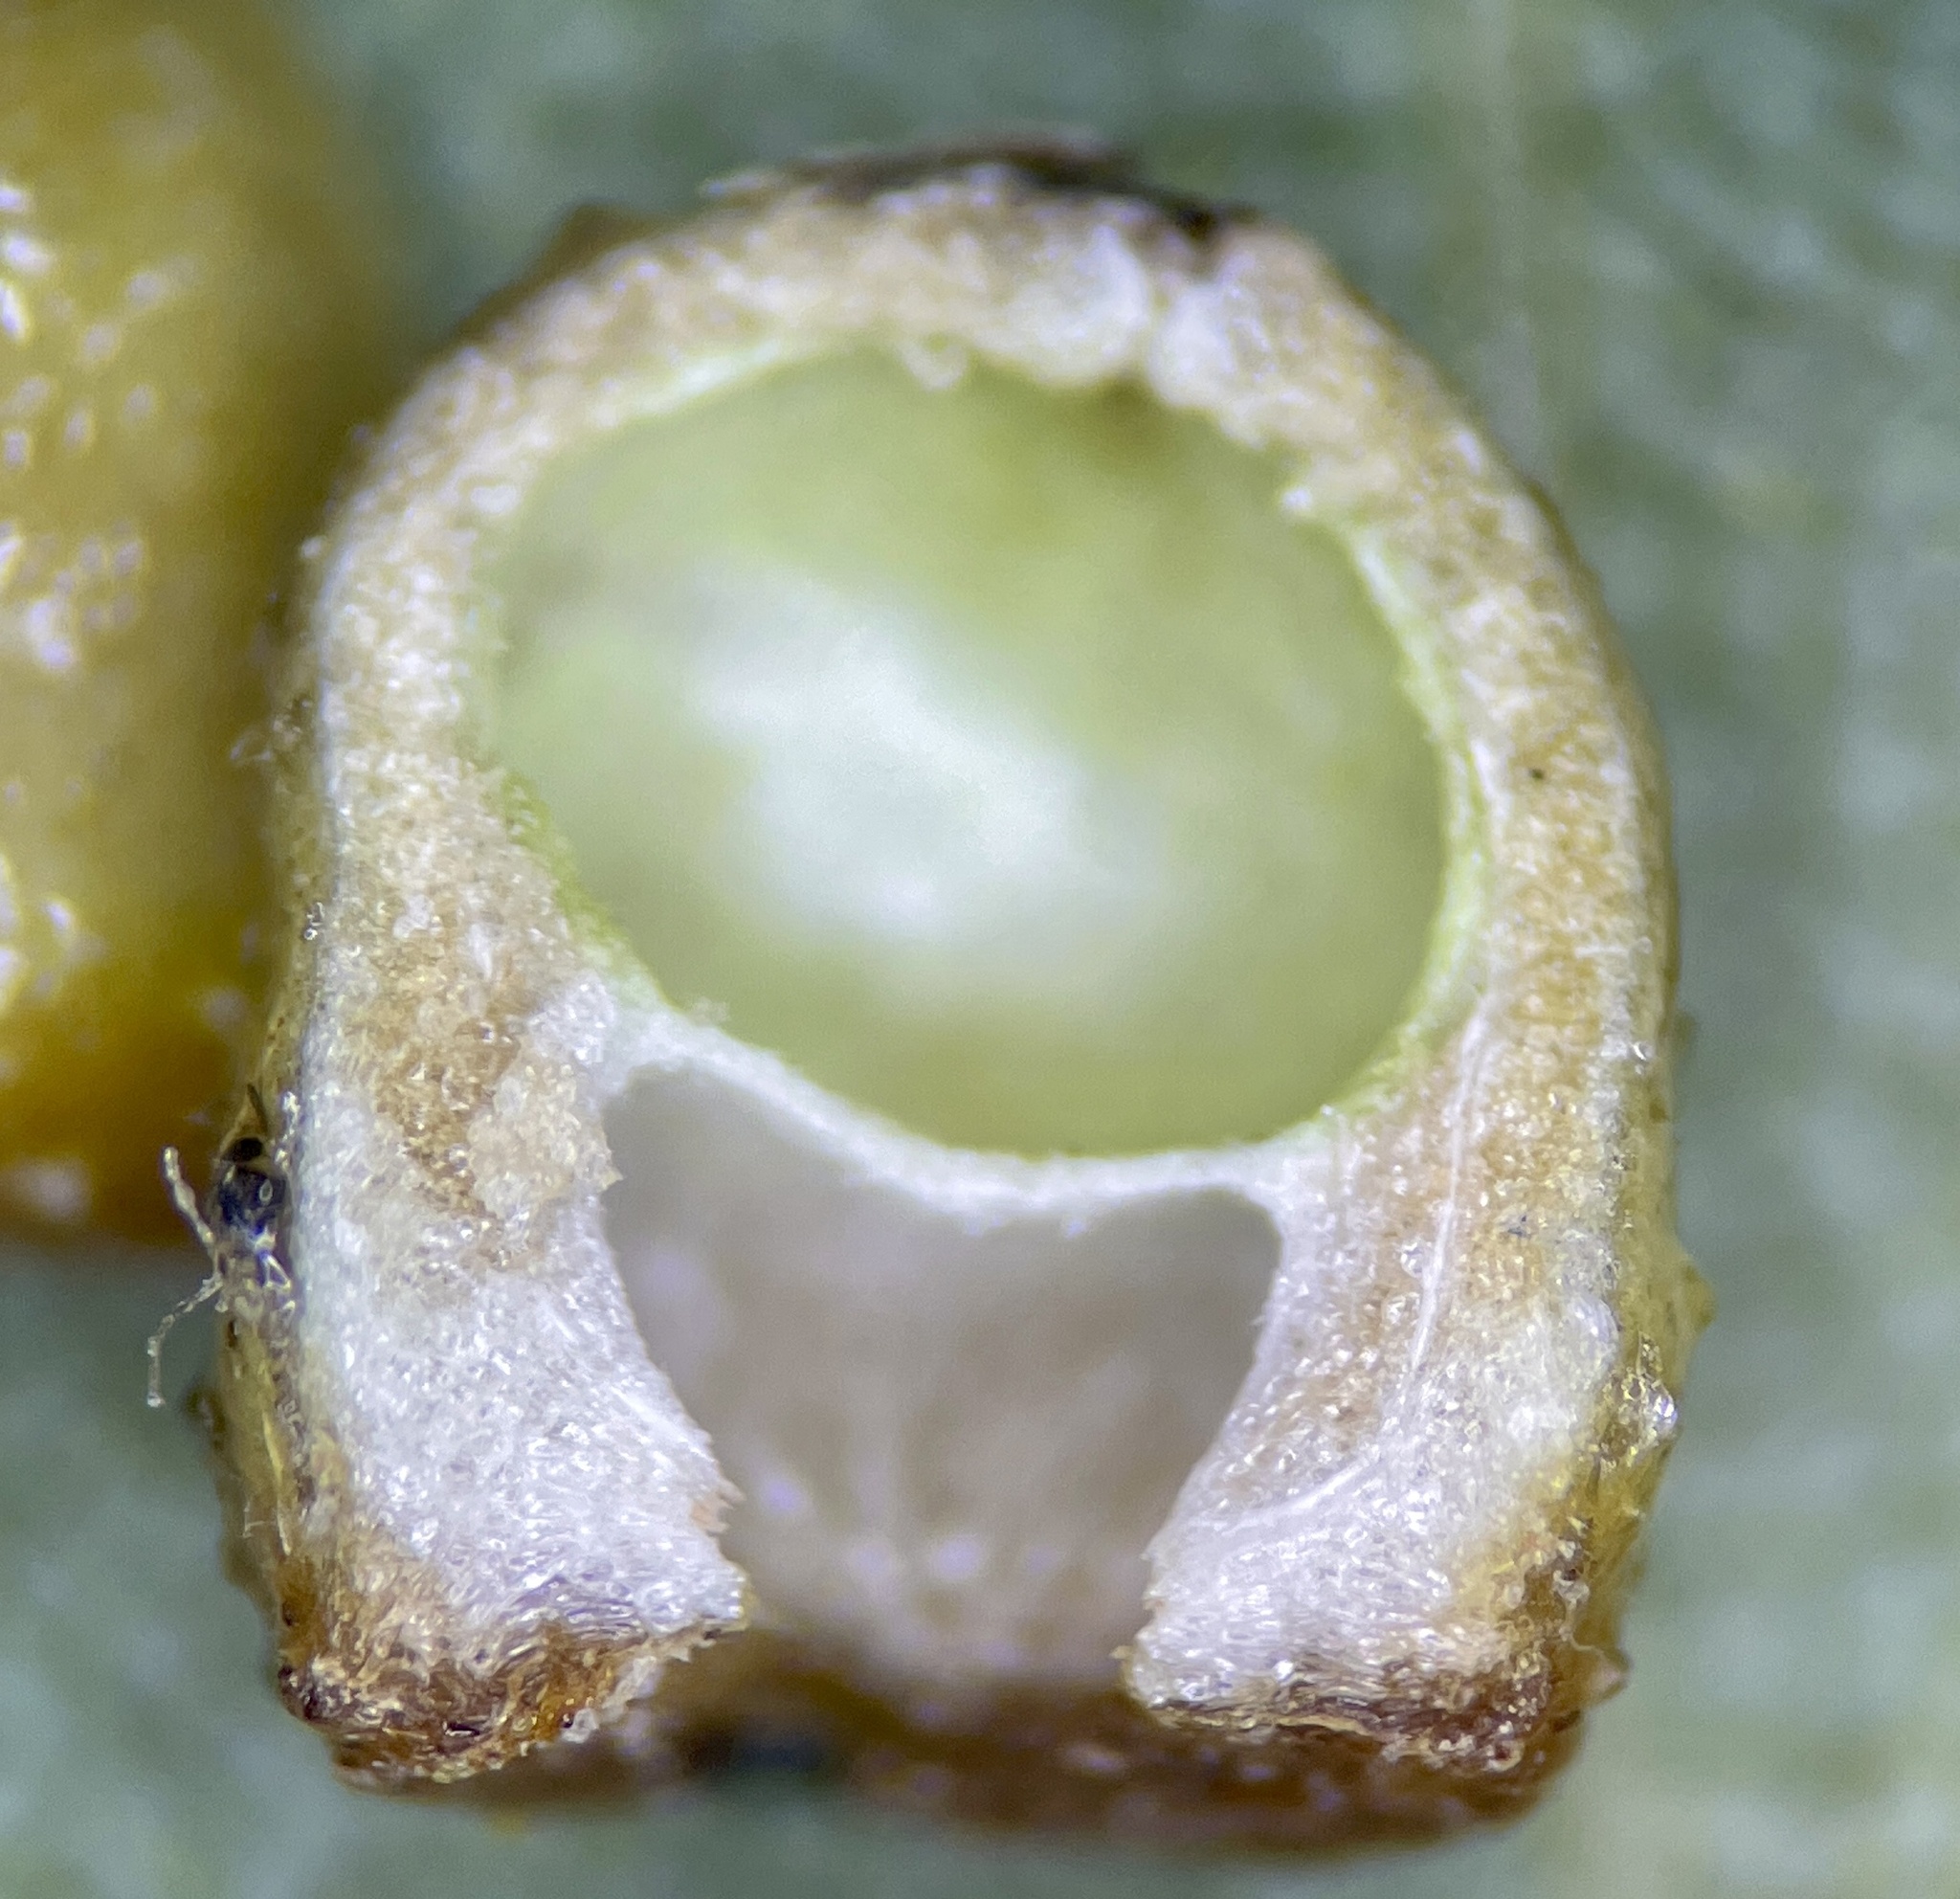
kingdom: Animalia
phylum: Arthropoda
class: Insecta
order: Diptera
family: Cecidomyiidae
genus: Caryomyia
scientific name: Caryomyia caryae
